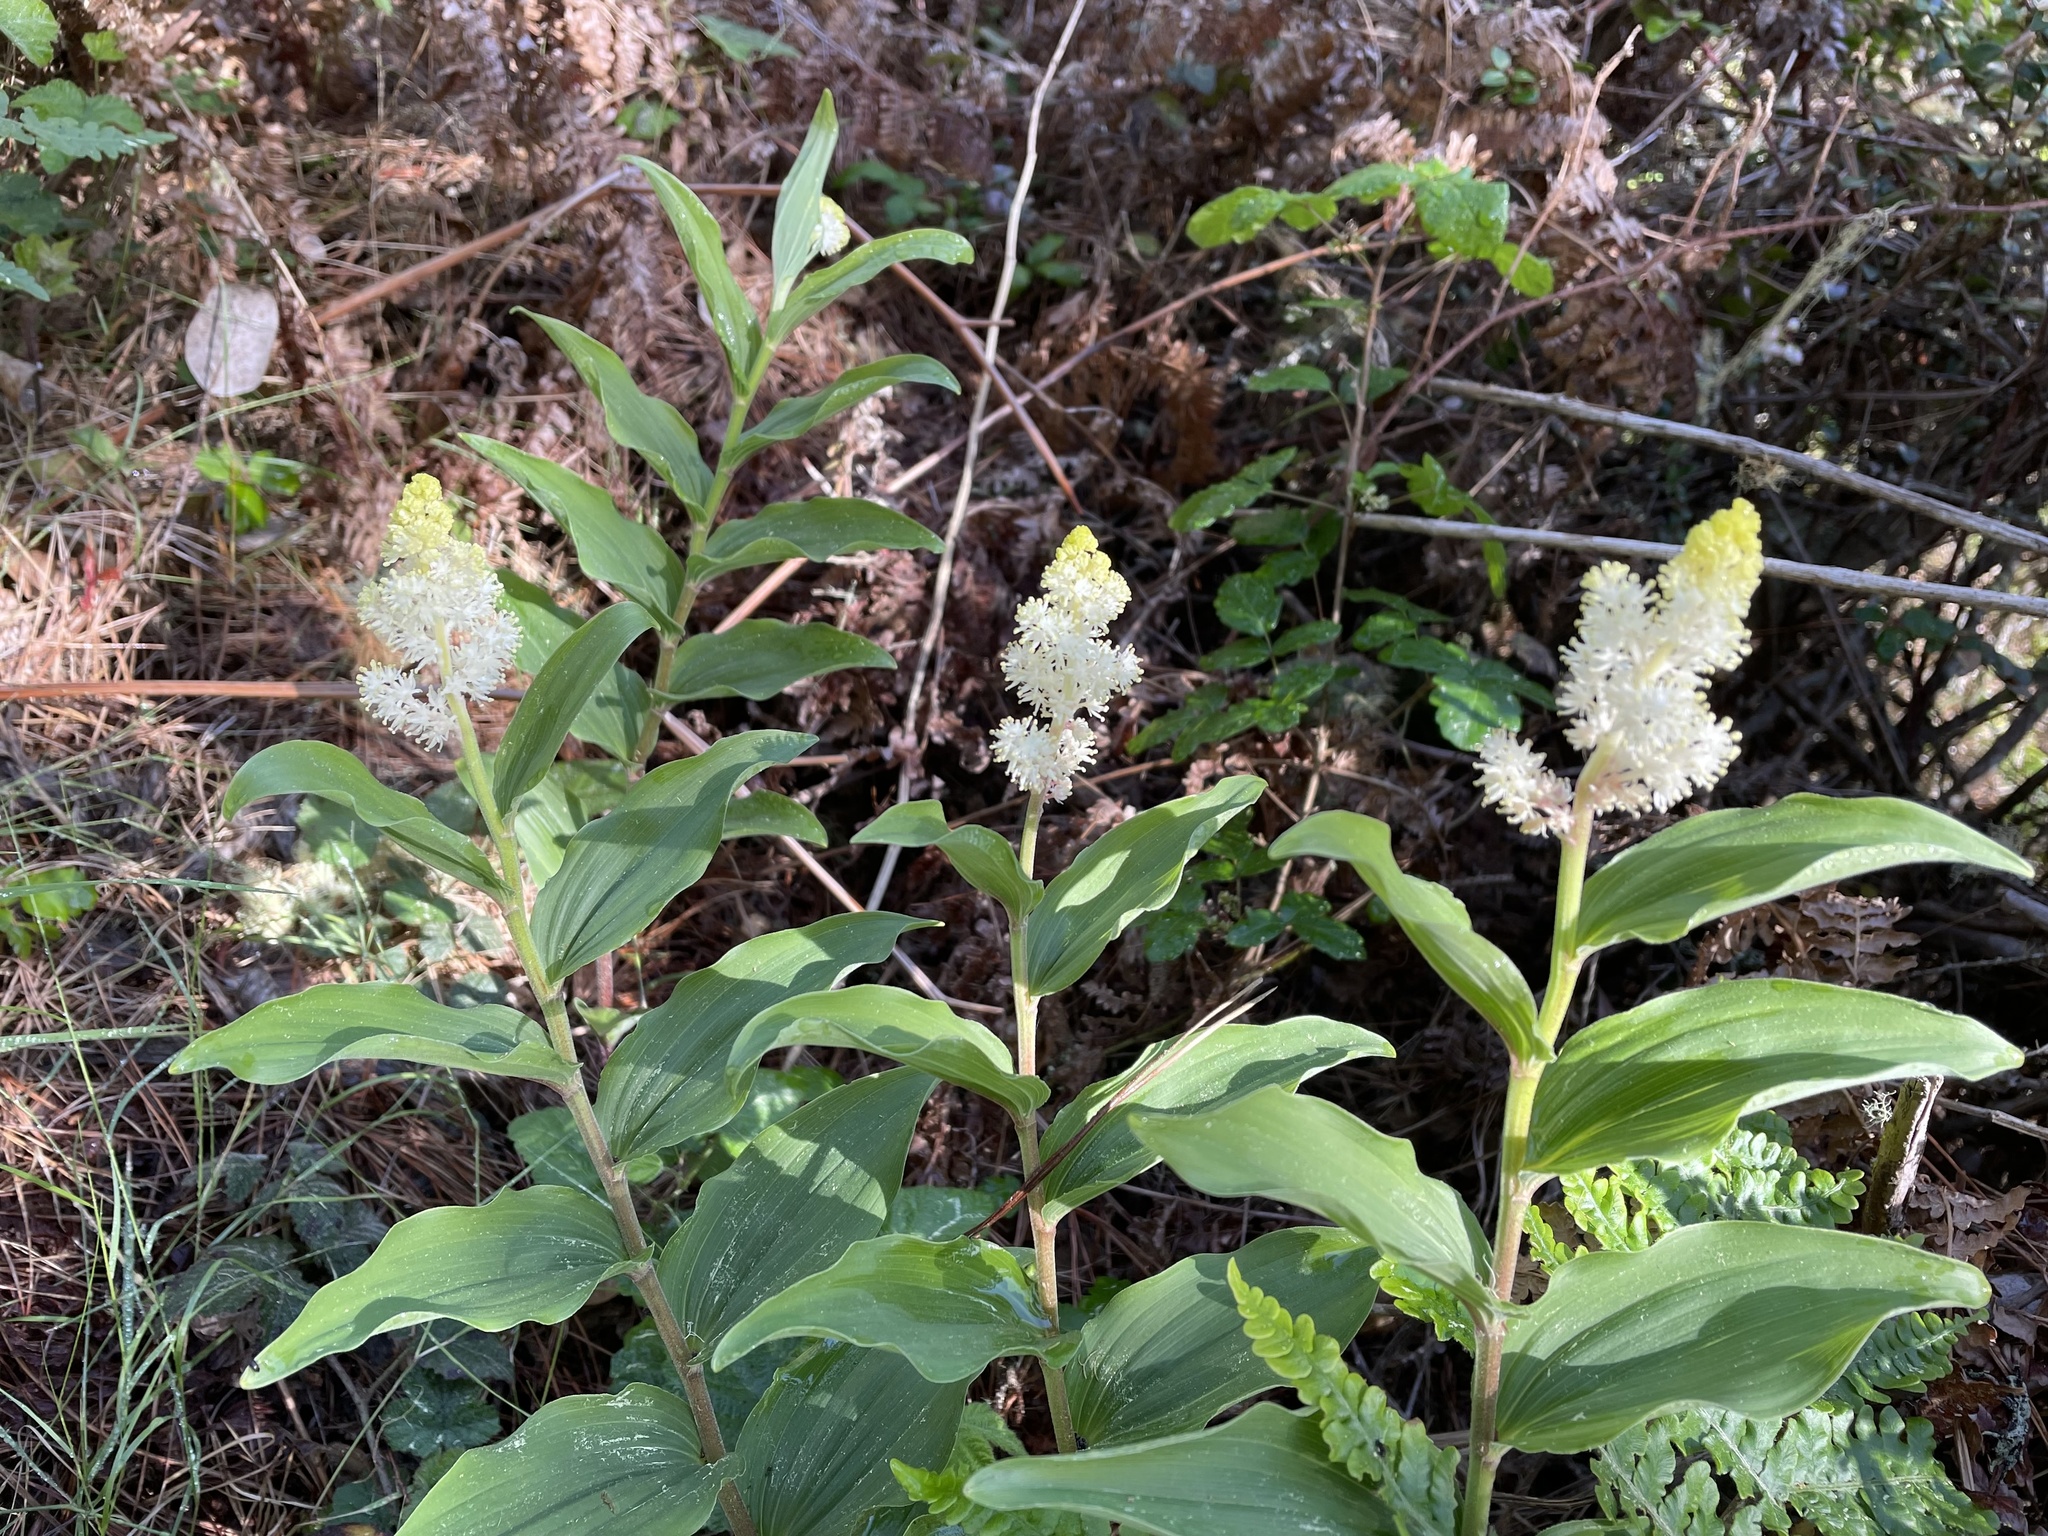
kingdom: Plantae
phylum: Tracheophyta
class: Liliopsida
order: Asparagales
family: Asparagaceae
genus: Maianthemum
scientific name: Maianthemum racemosum
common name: False spikenard
